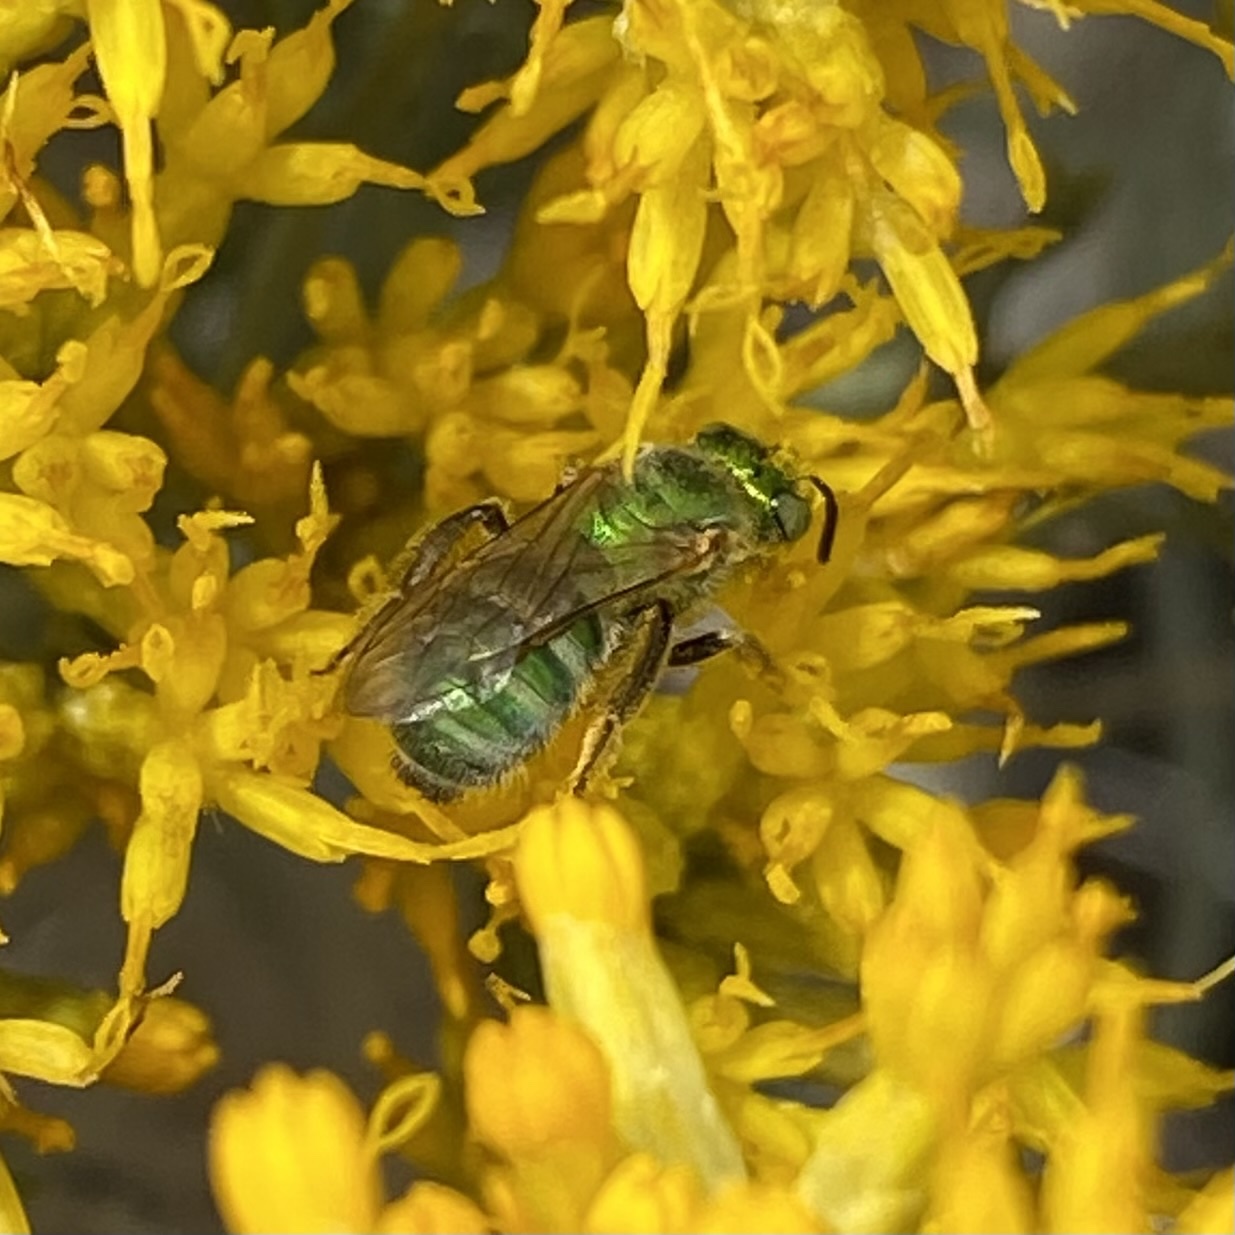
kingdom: Animalia
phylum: Arthropoda
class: Insecta
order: Hymenoptera
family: Halictidae
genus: Agapostemon
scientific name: Agapostemon
